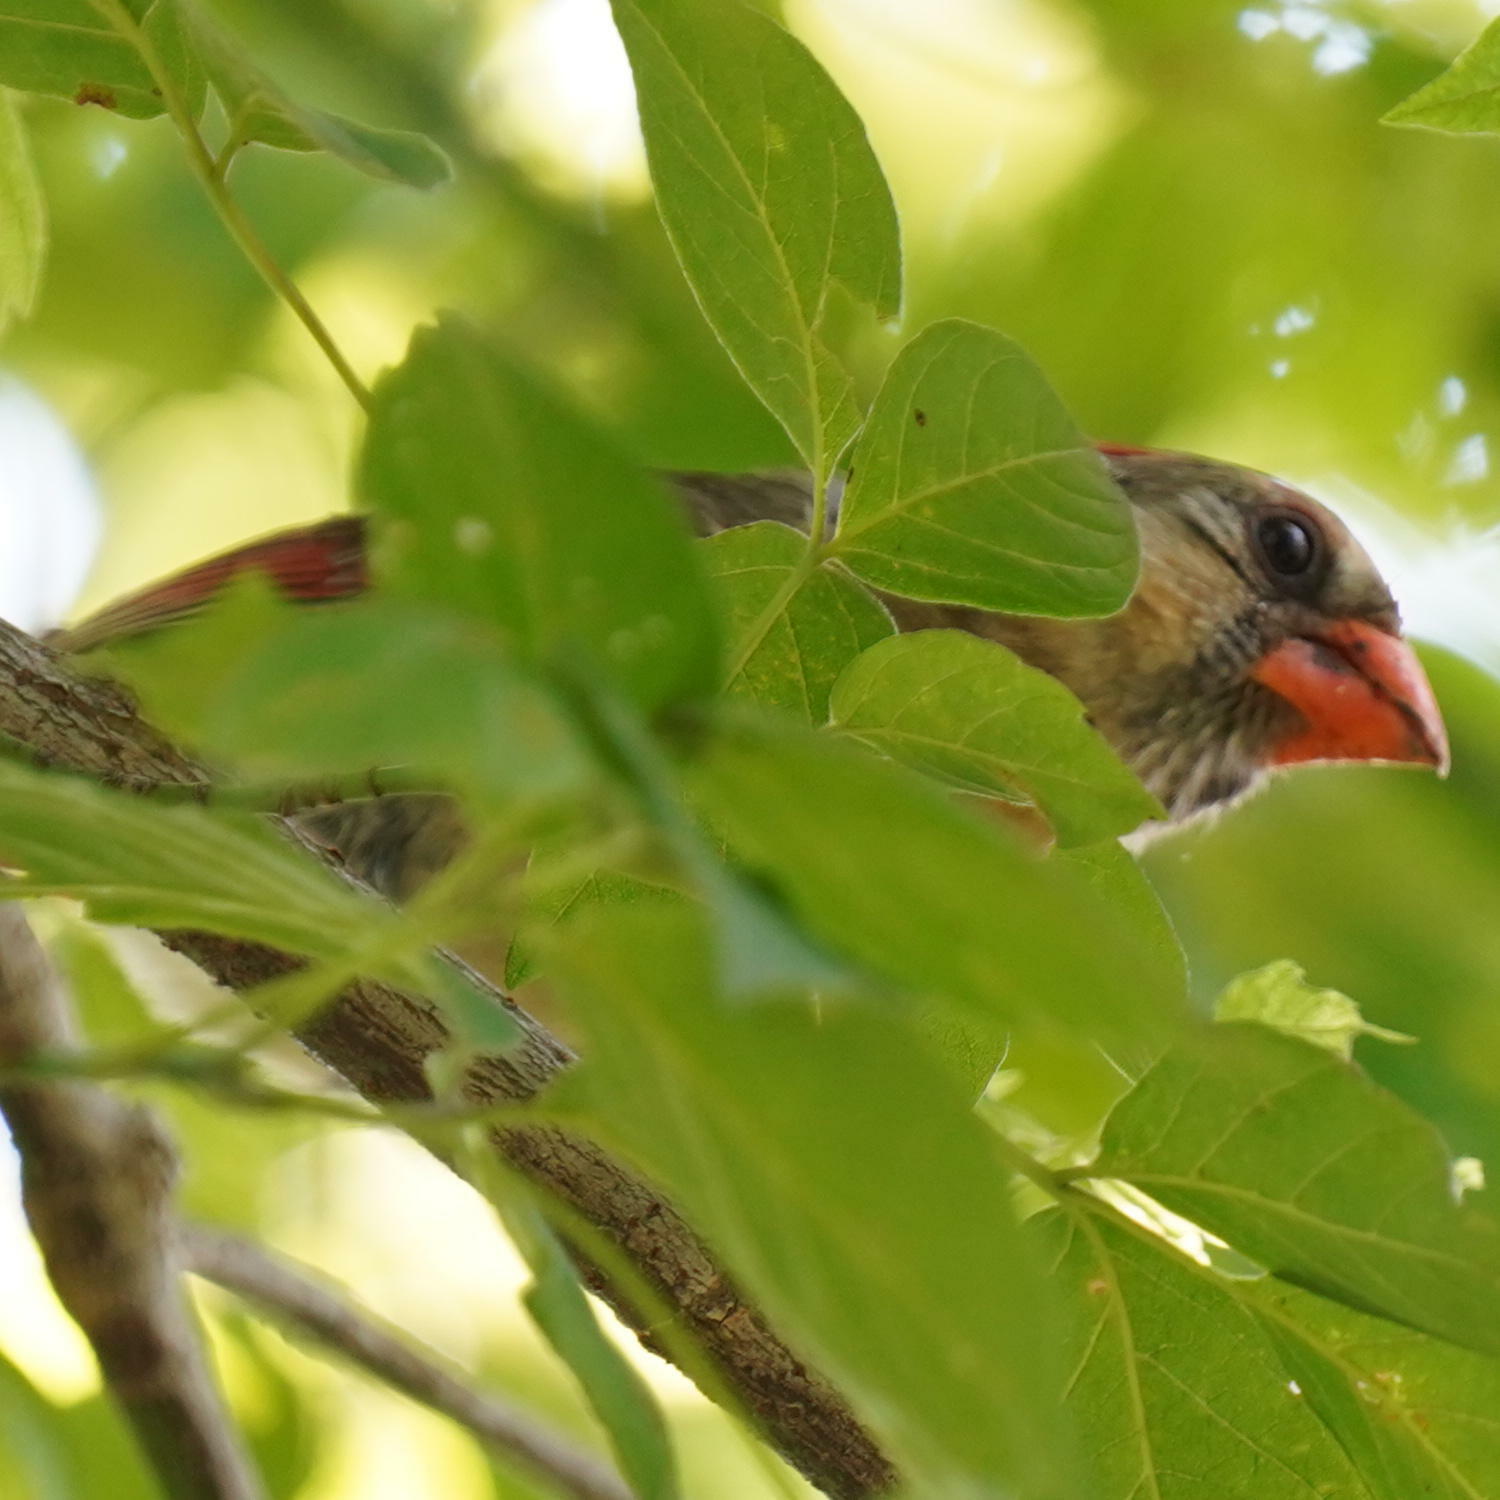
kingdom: Animalia
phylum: Chordata
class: Aves
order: Passeriformes
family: Cardinalidae
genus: Cardinalis
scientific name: Cardinalis cardinalis
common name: Northern cardinal
